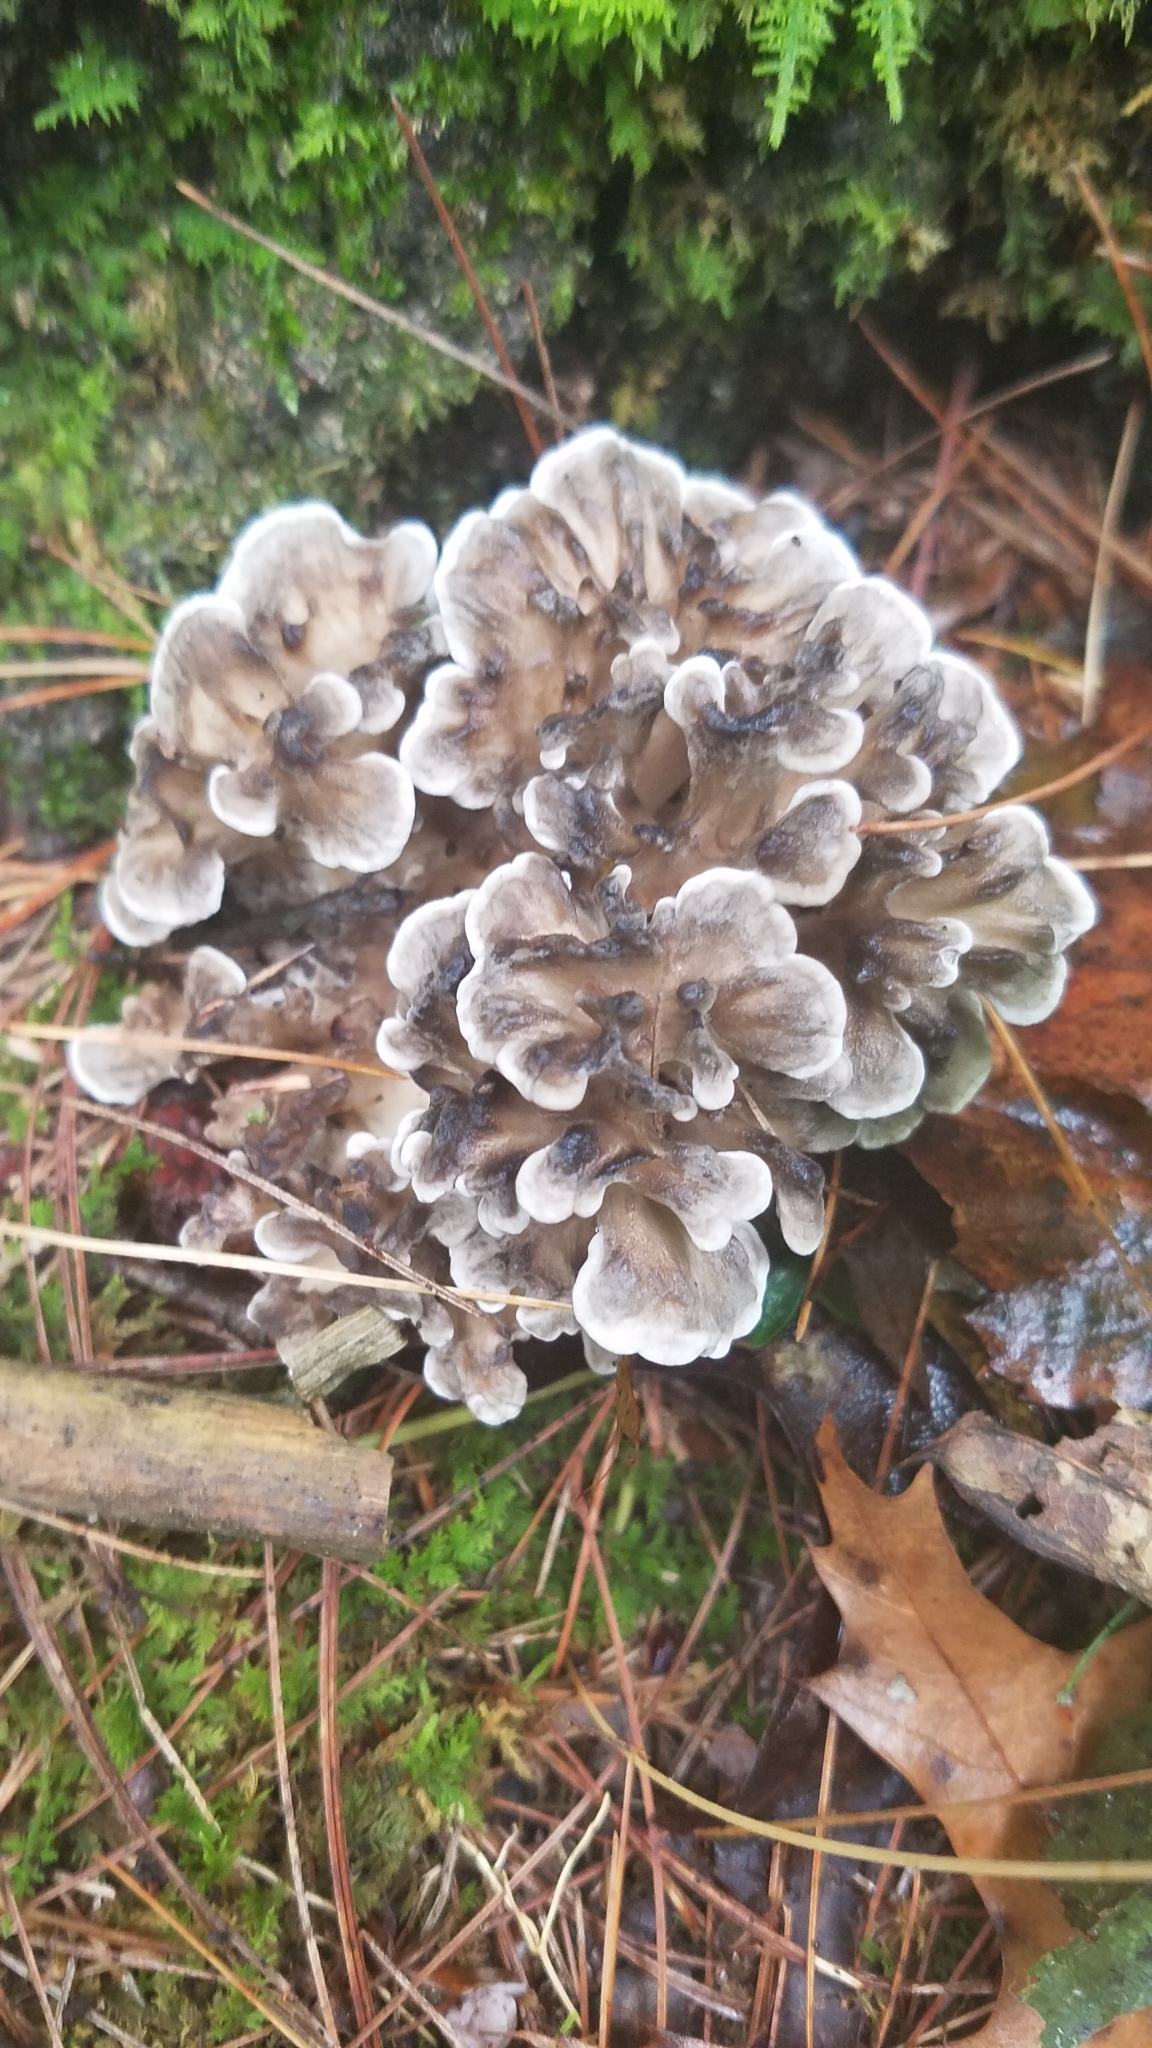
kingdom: Fungi
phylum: Basidiomycota
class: Agaricomycetes
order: Polyporales
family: Grifolaceae
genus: Grifola
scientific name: Grifola frondosa
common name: Hen of the woods
